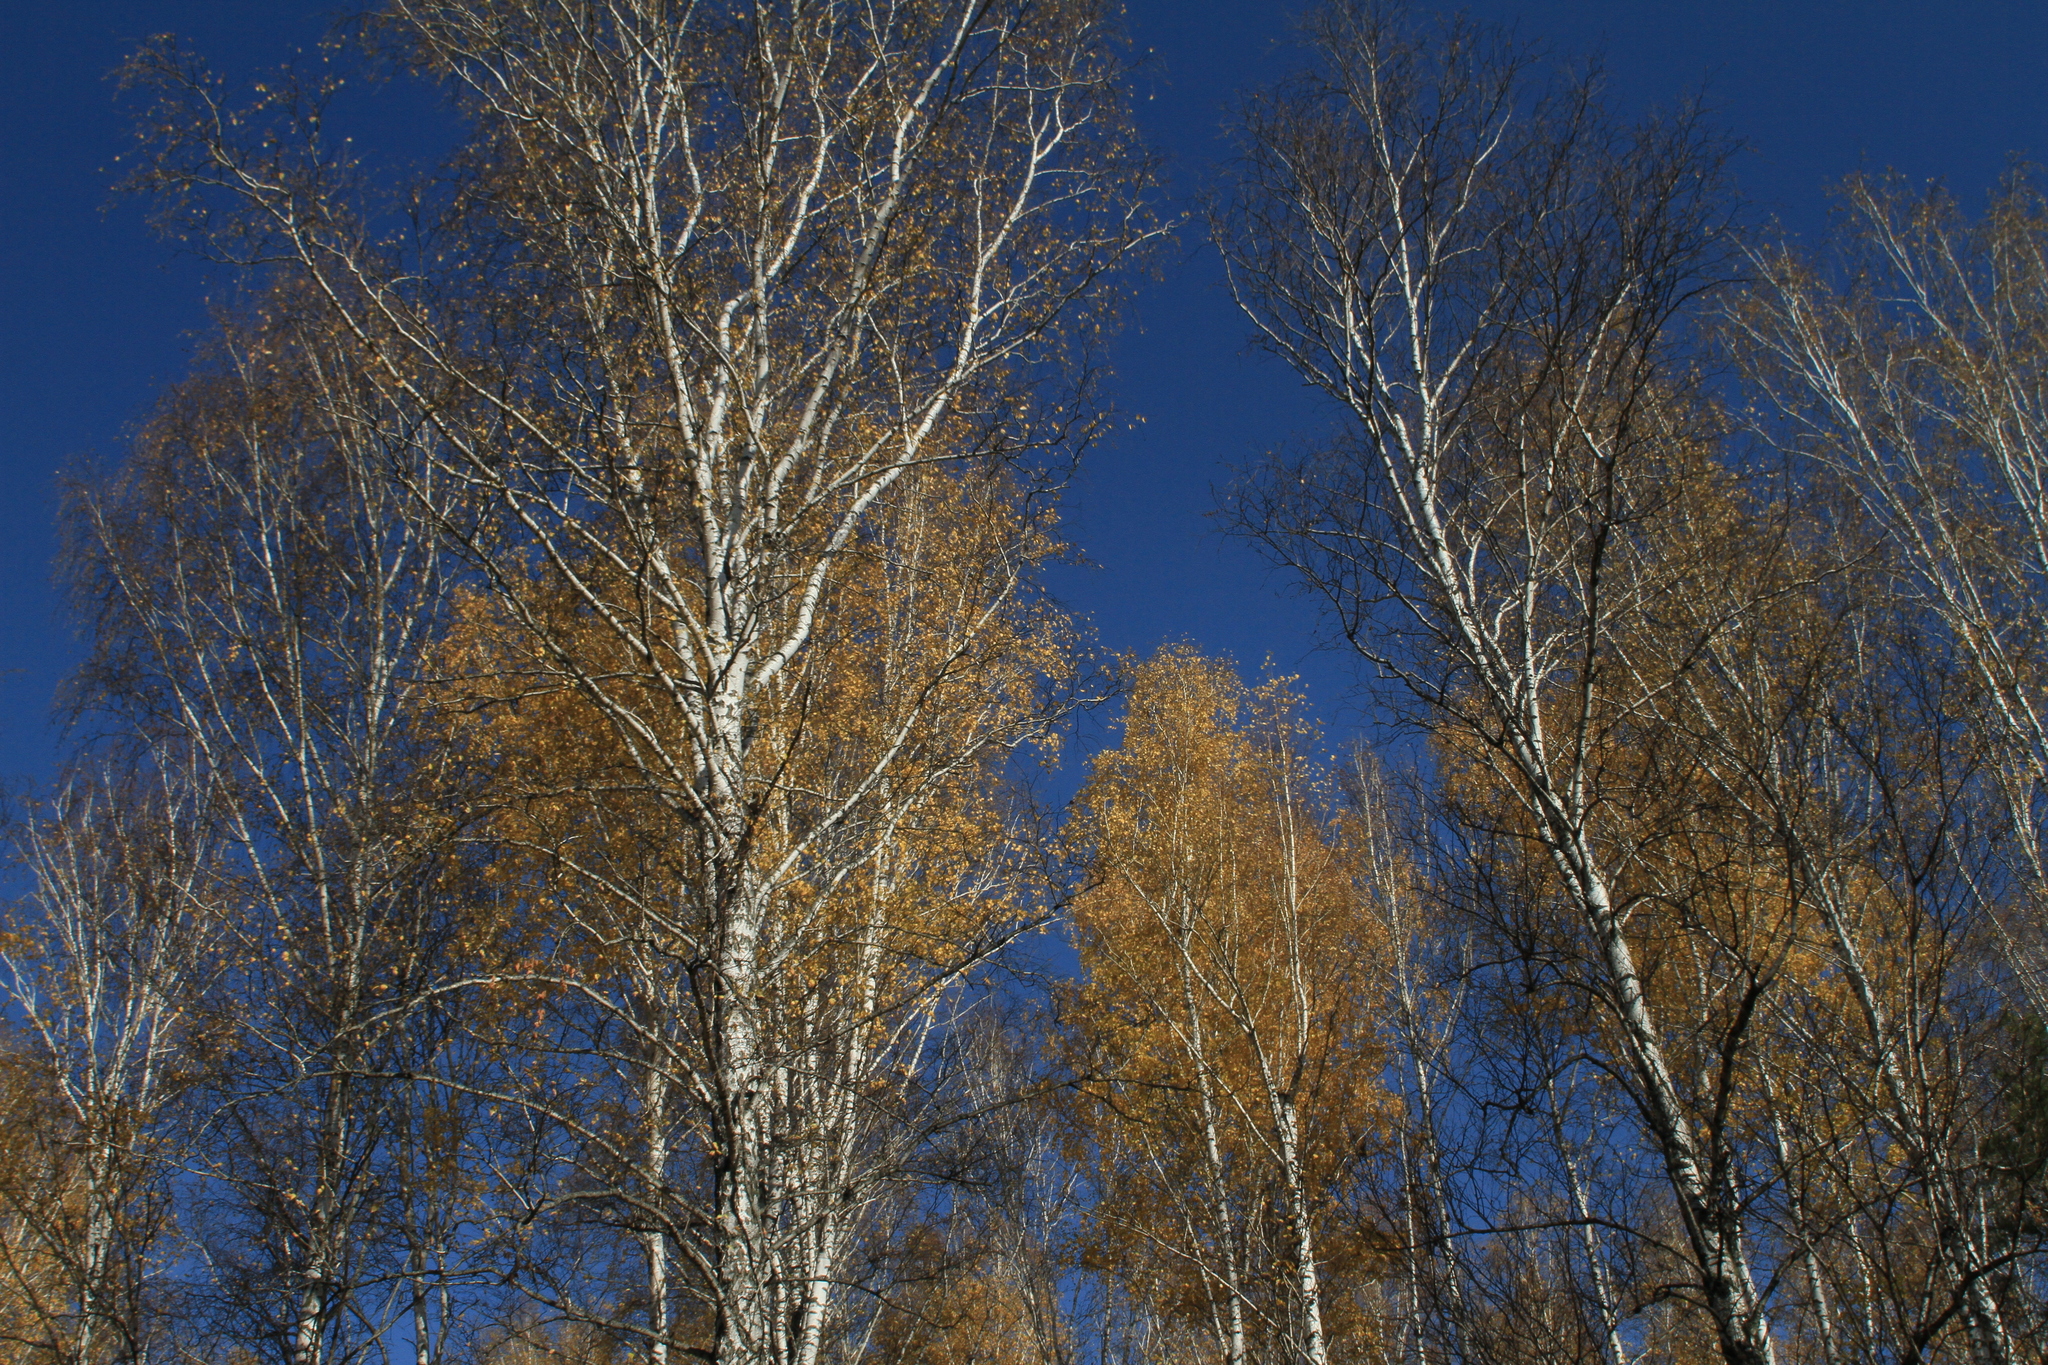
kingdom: Plantae
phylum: Tracheophyta
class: Magnoliopsida
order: Fagales
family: Betulaceae
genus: Betula
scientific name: Betula pendula
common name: Silver birch
